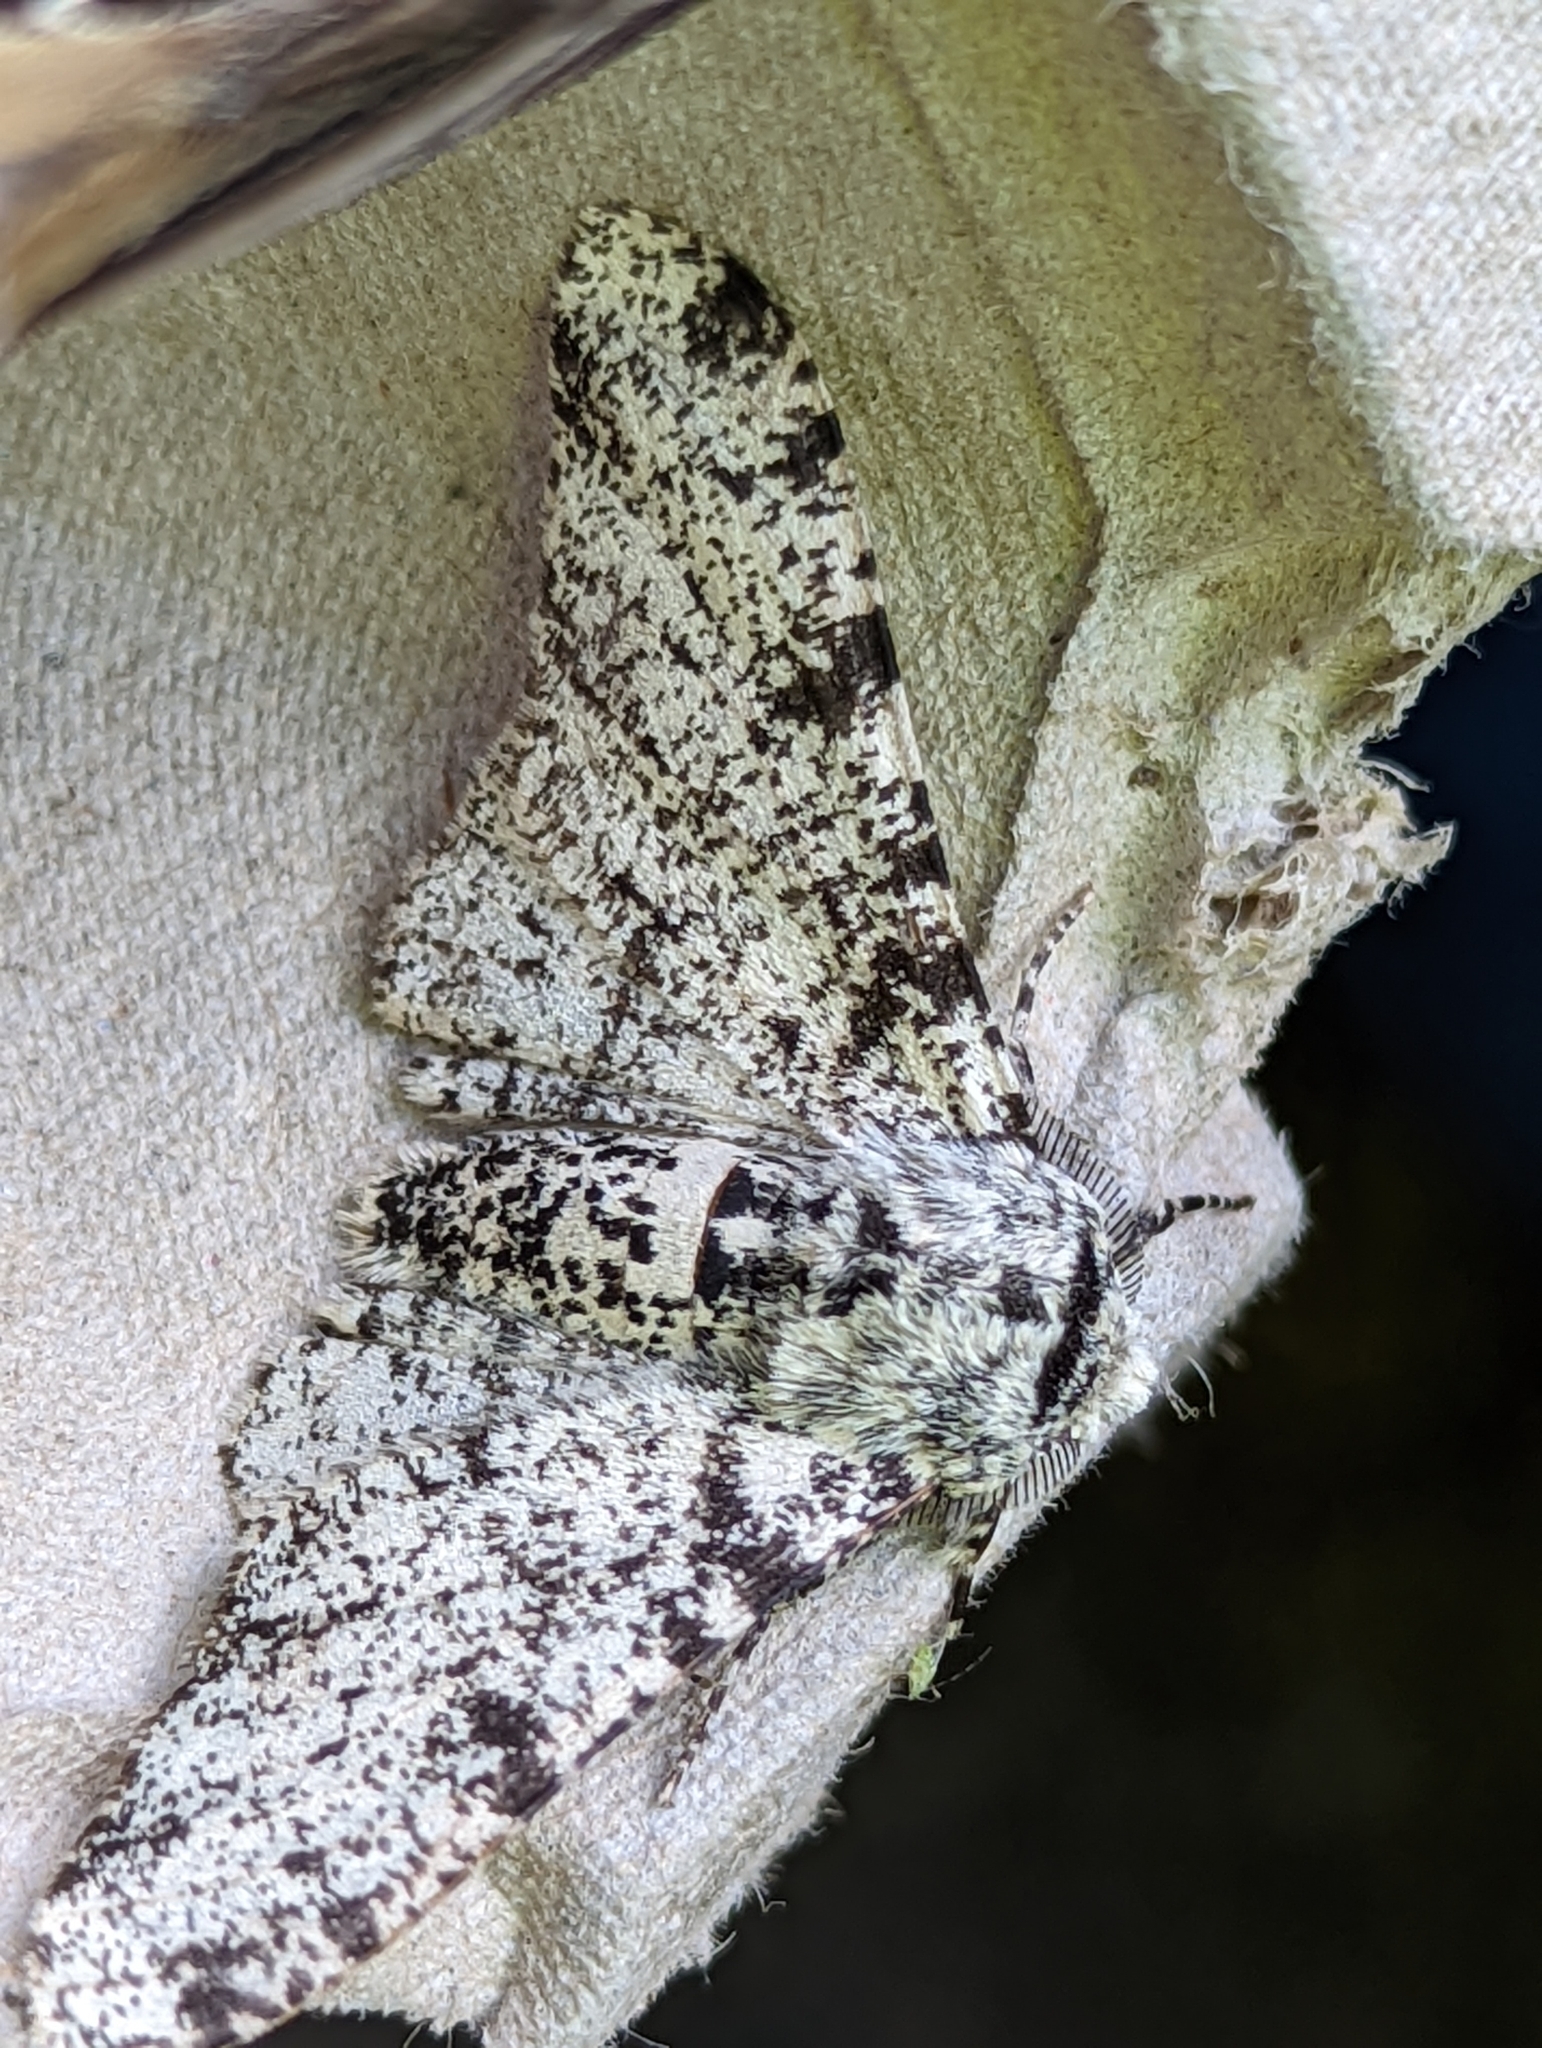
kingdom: Animalia
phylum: Arthropoda
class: Insecta
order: Lepidoptera
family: Geometridae
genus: Biston
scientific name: Biston betularia
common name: Peppered moth
